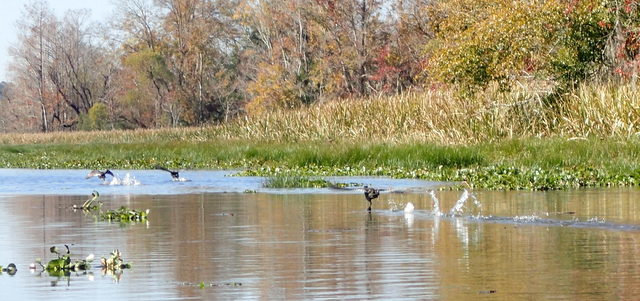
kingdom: Animalia
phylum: Chordata
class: Aves
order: Gruiformes
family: Rallidae
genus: Fulica
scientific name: Fulica americana
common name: American coot
